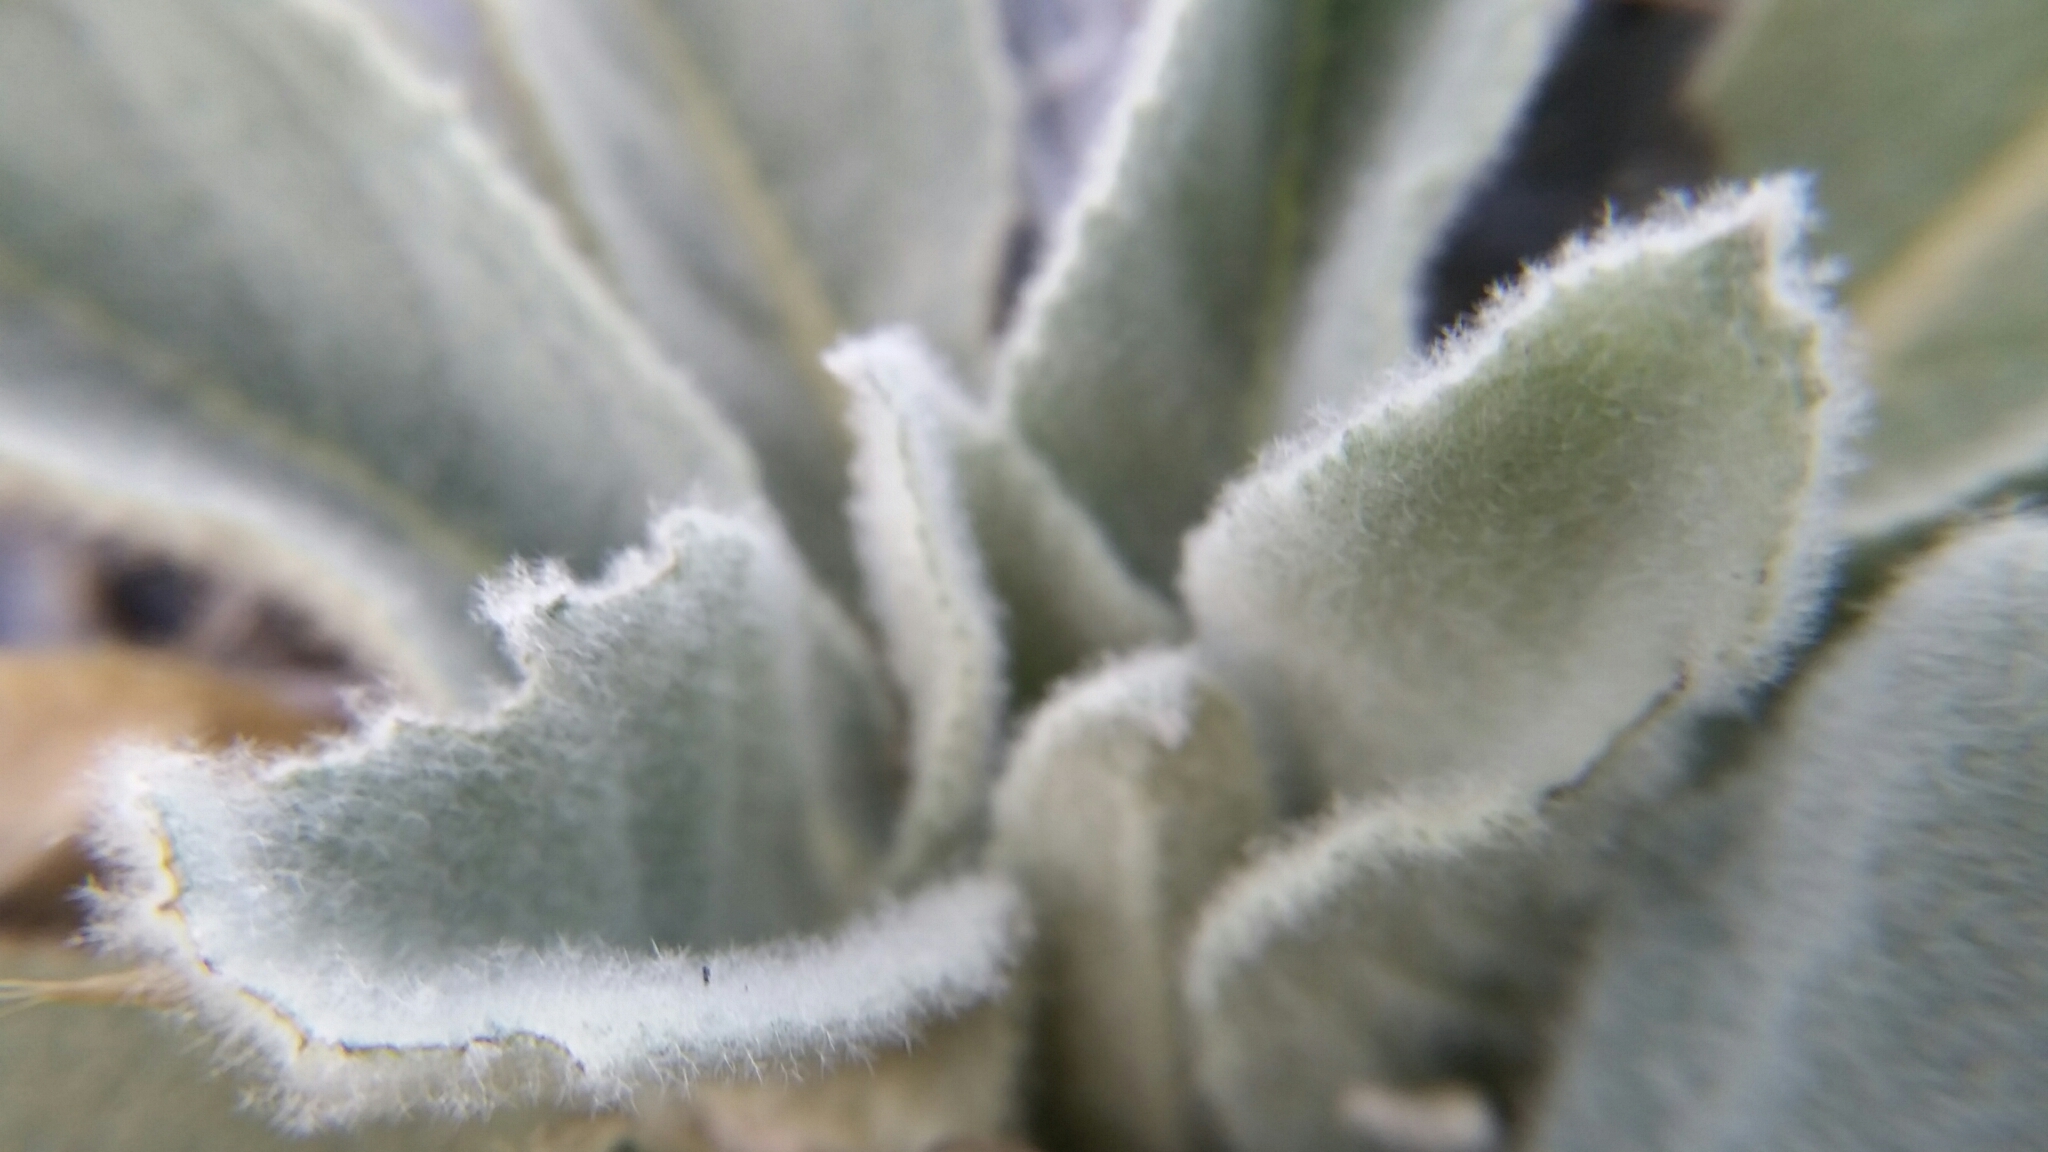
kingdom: Plantae
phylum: Tracheophyta
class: Magnoliopsida
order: Lamiales
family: Scrophulariaceae
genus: Verbascum
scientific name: Verbascum thapsus
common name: Common mullein
